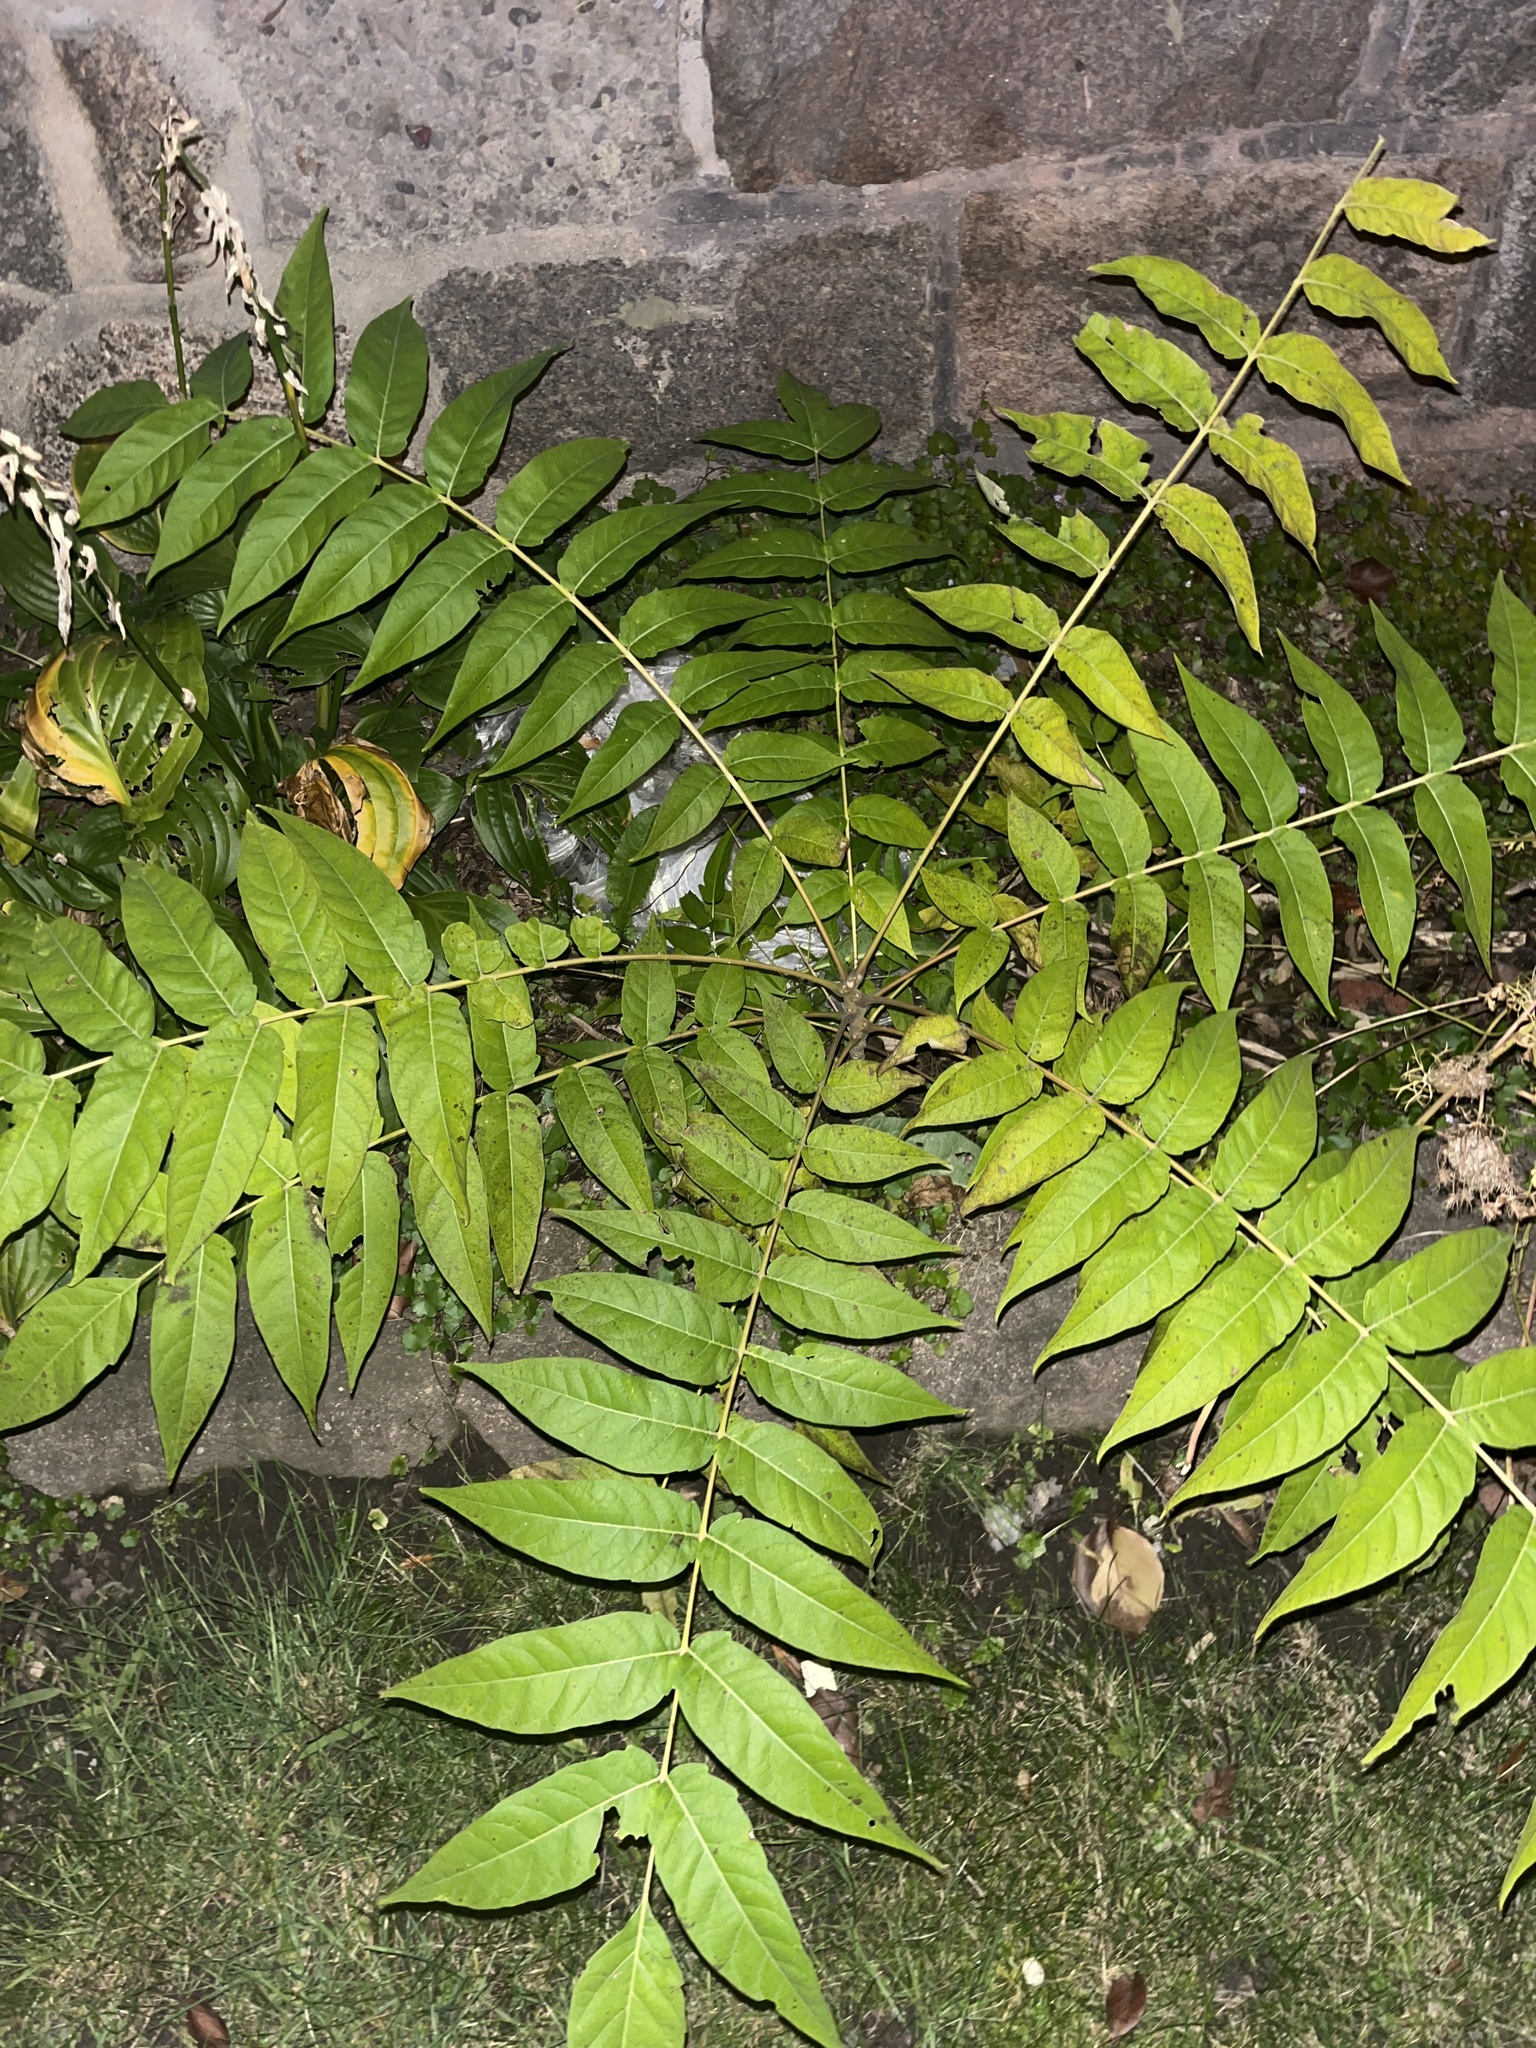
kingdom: Plantae
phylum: Tracheophyta
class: Magnoliopsida
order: Sapindales
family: Simaroubaceae
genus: Ailanthus
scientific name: Ailanthus altissima
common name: Tree-of-heaven
